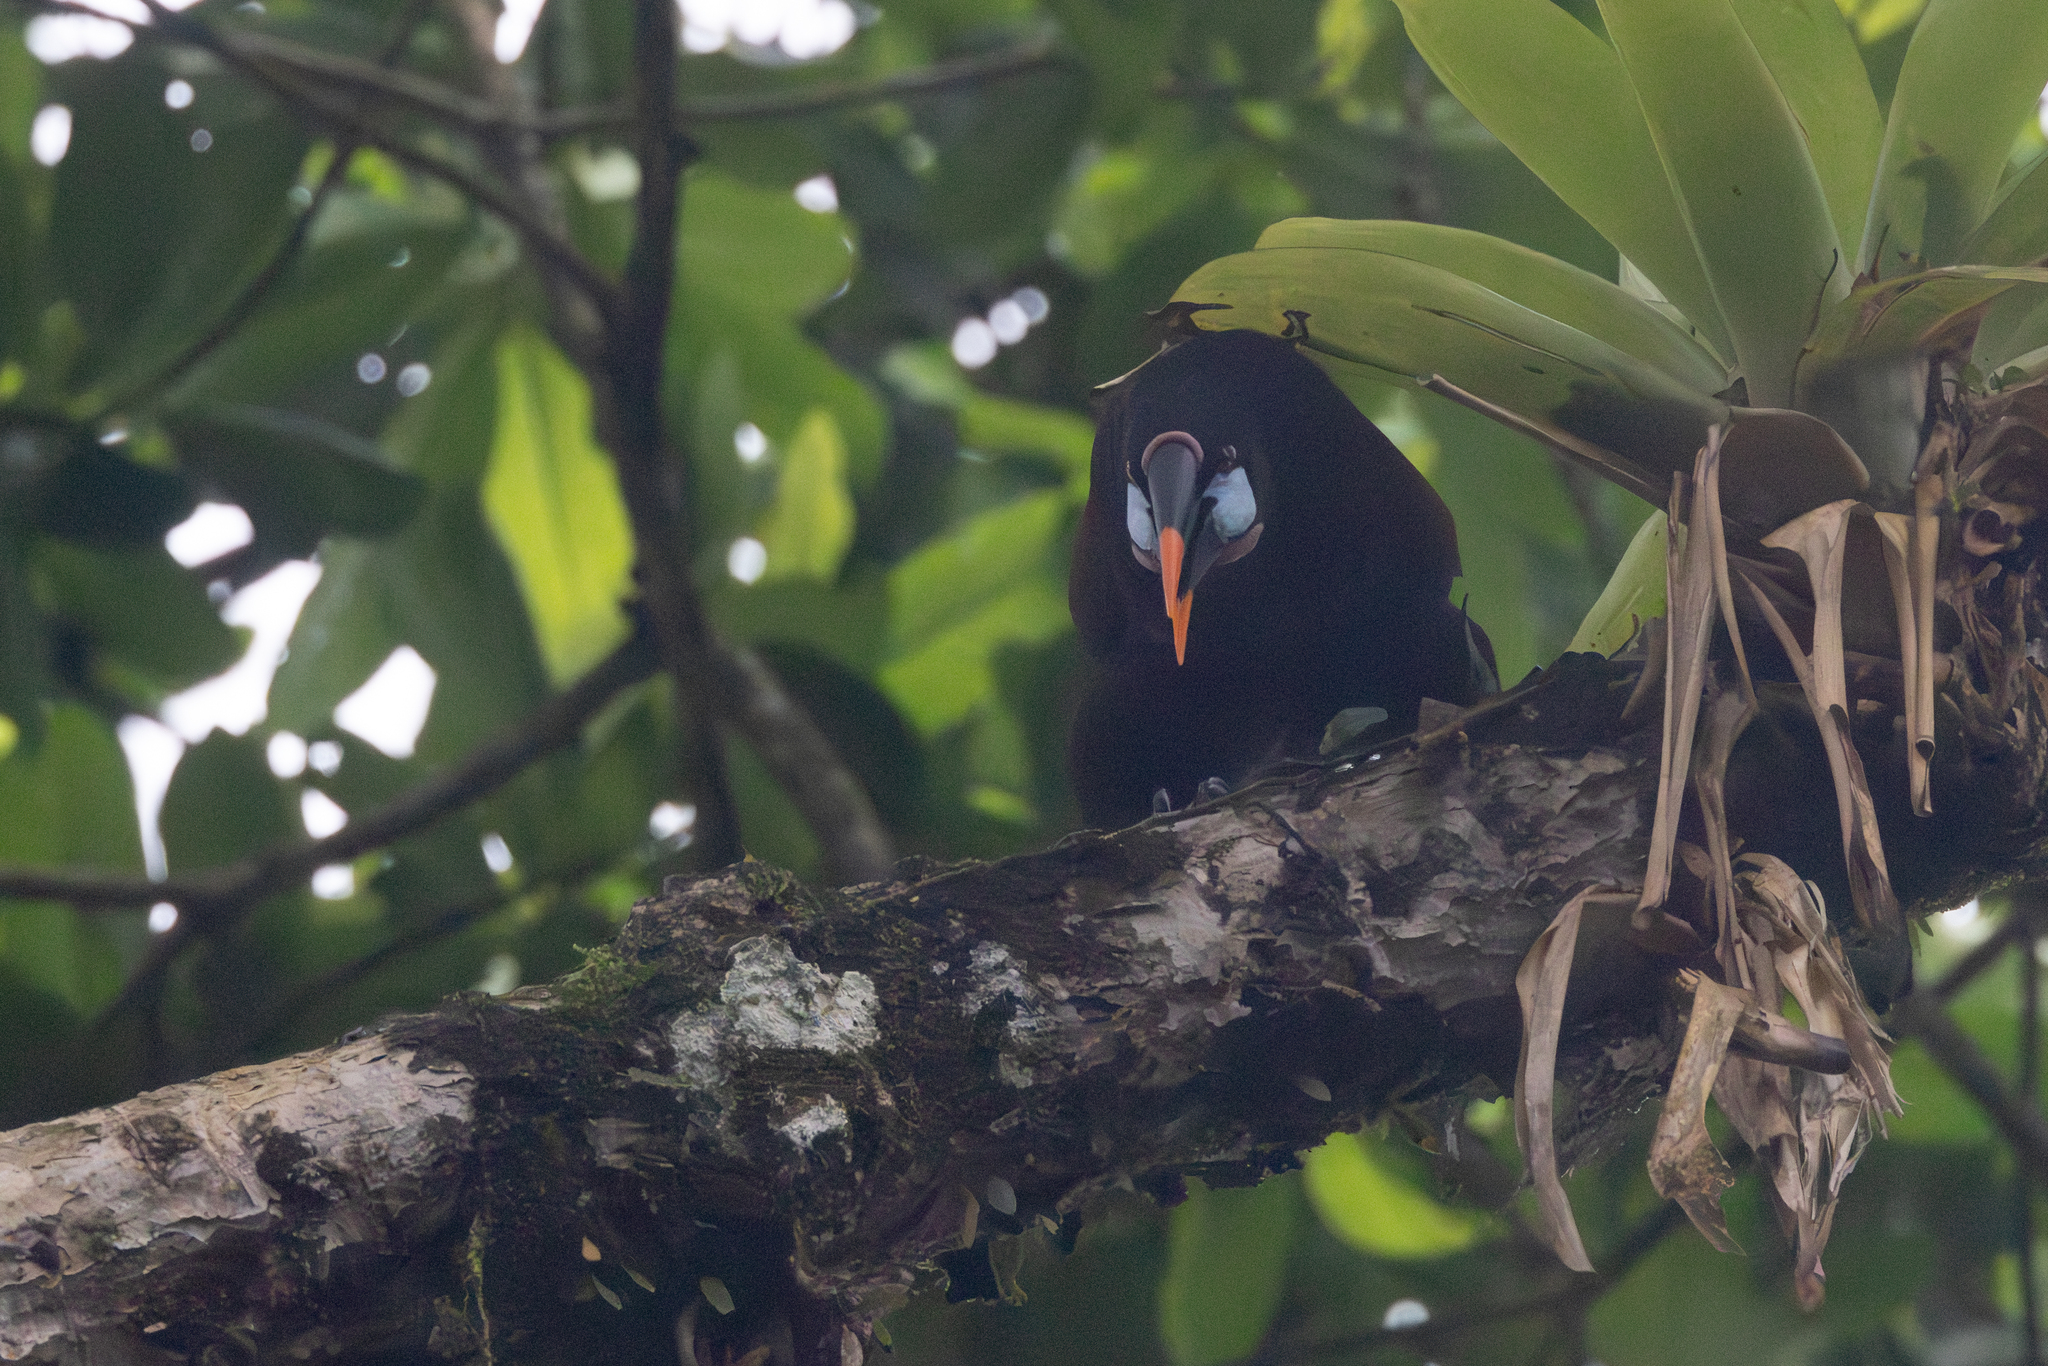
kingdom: Animalia
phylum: Chordata
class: Aves
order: Passeriformes
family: Icteridae
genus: Psarocolius
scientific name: Psarocolius montezuma
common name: Montezuma oropendola
